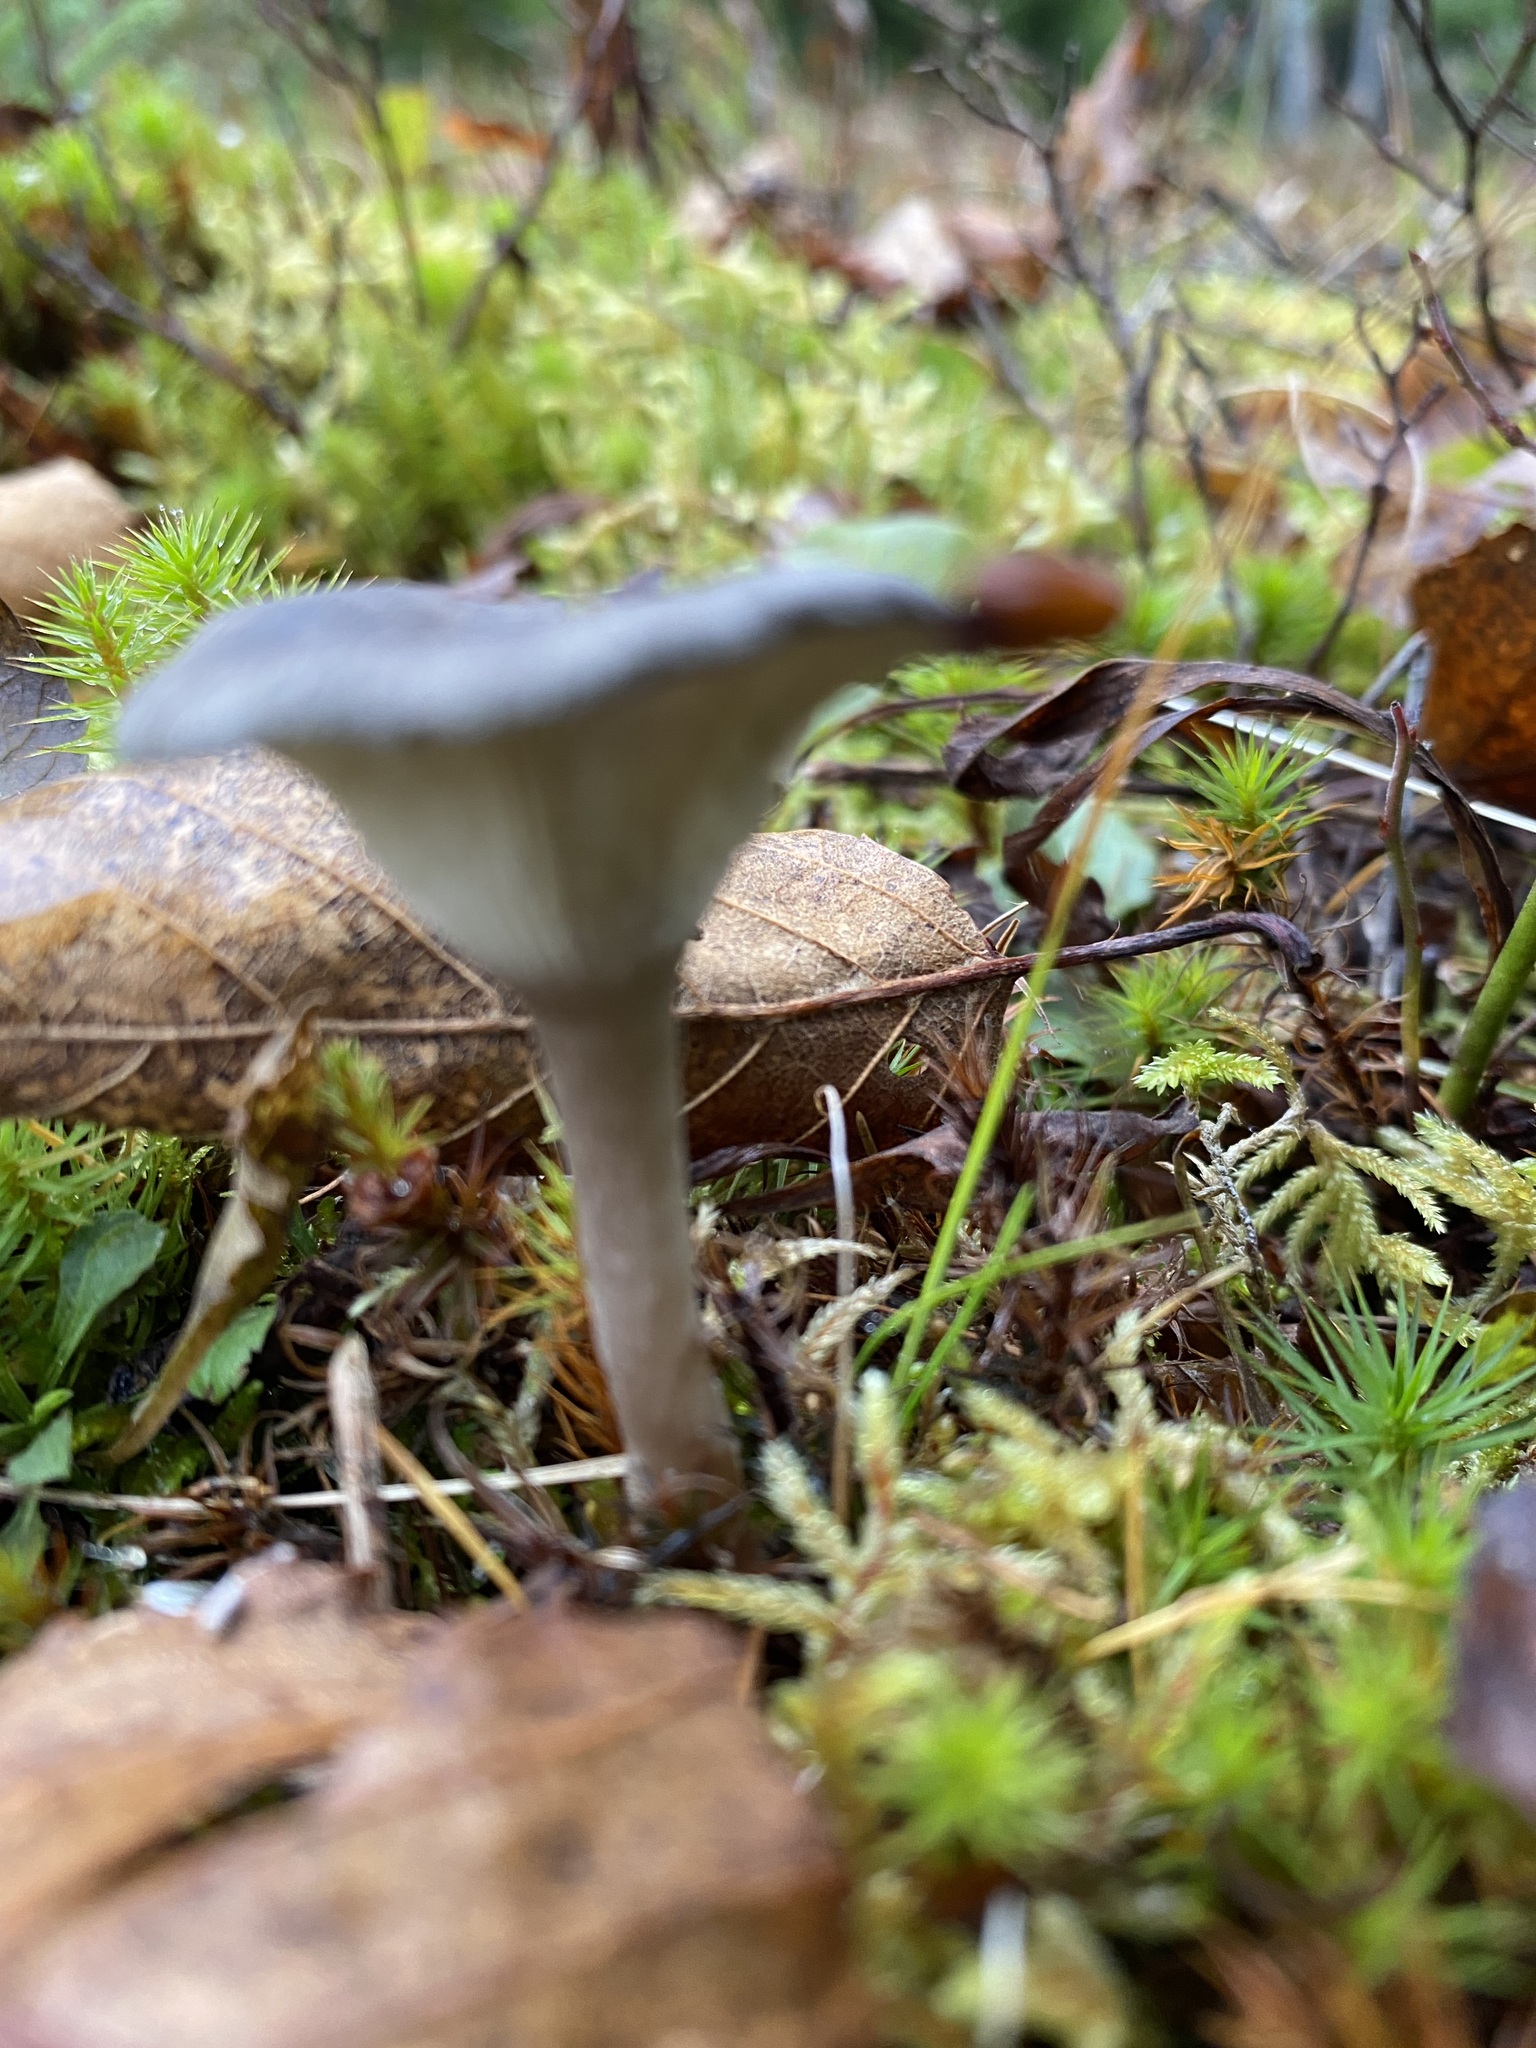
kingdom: Fungi
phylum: Basidiomycota
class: Agaricomycetes
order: Agaricales
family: Hygrophoraceae
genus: Cantharellula
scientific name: Cantharellula umbonata
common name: The humpback
